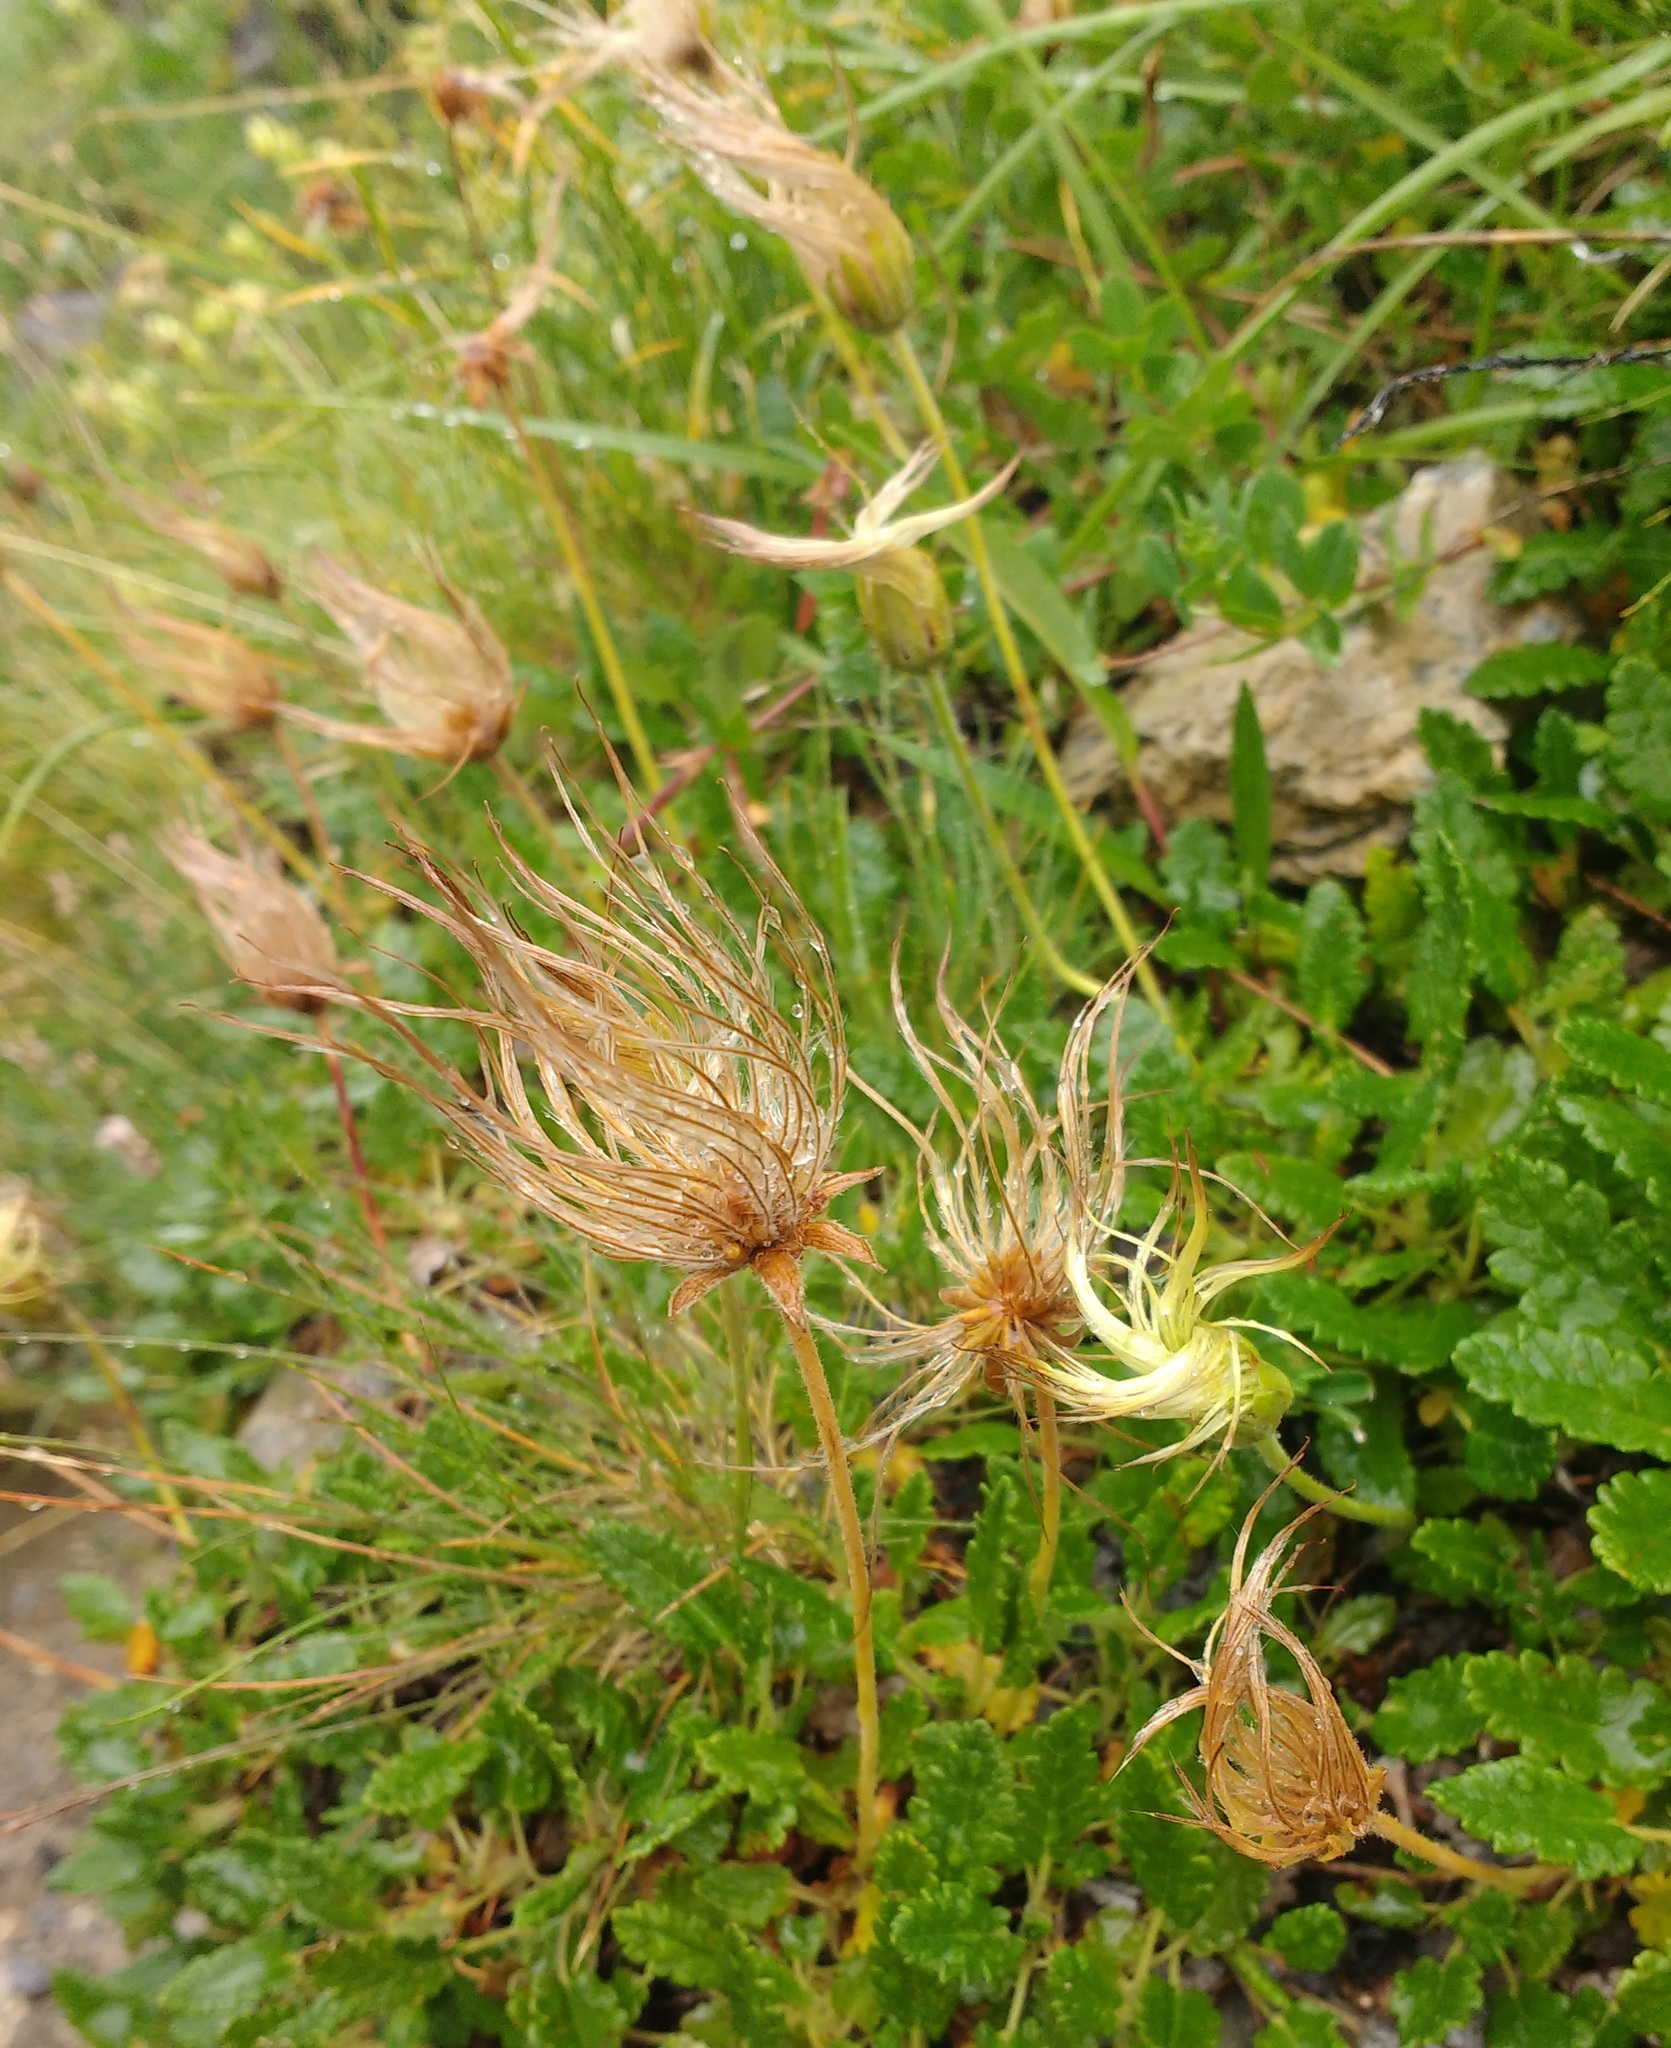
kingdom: Plantae
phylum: Tracheophyta
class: Magnoliopsida
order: Rosales
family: Rosaceae
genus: Dryas
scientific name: Dryas octopetala
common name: Eight-petal mountain-avens
